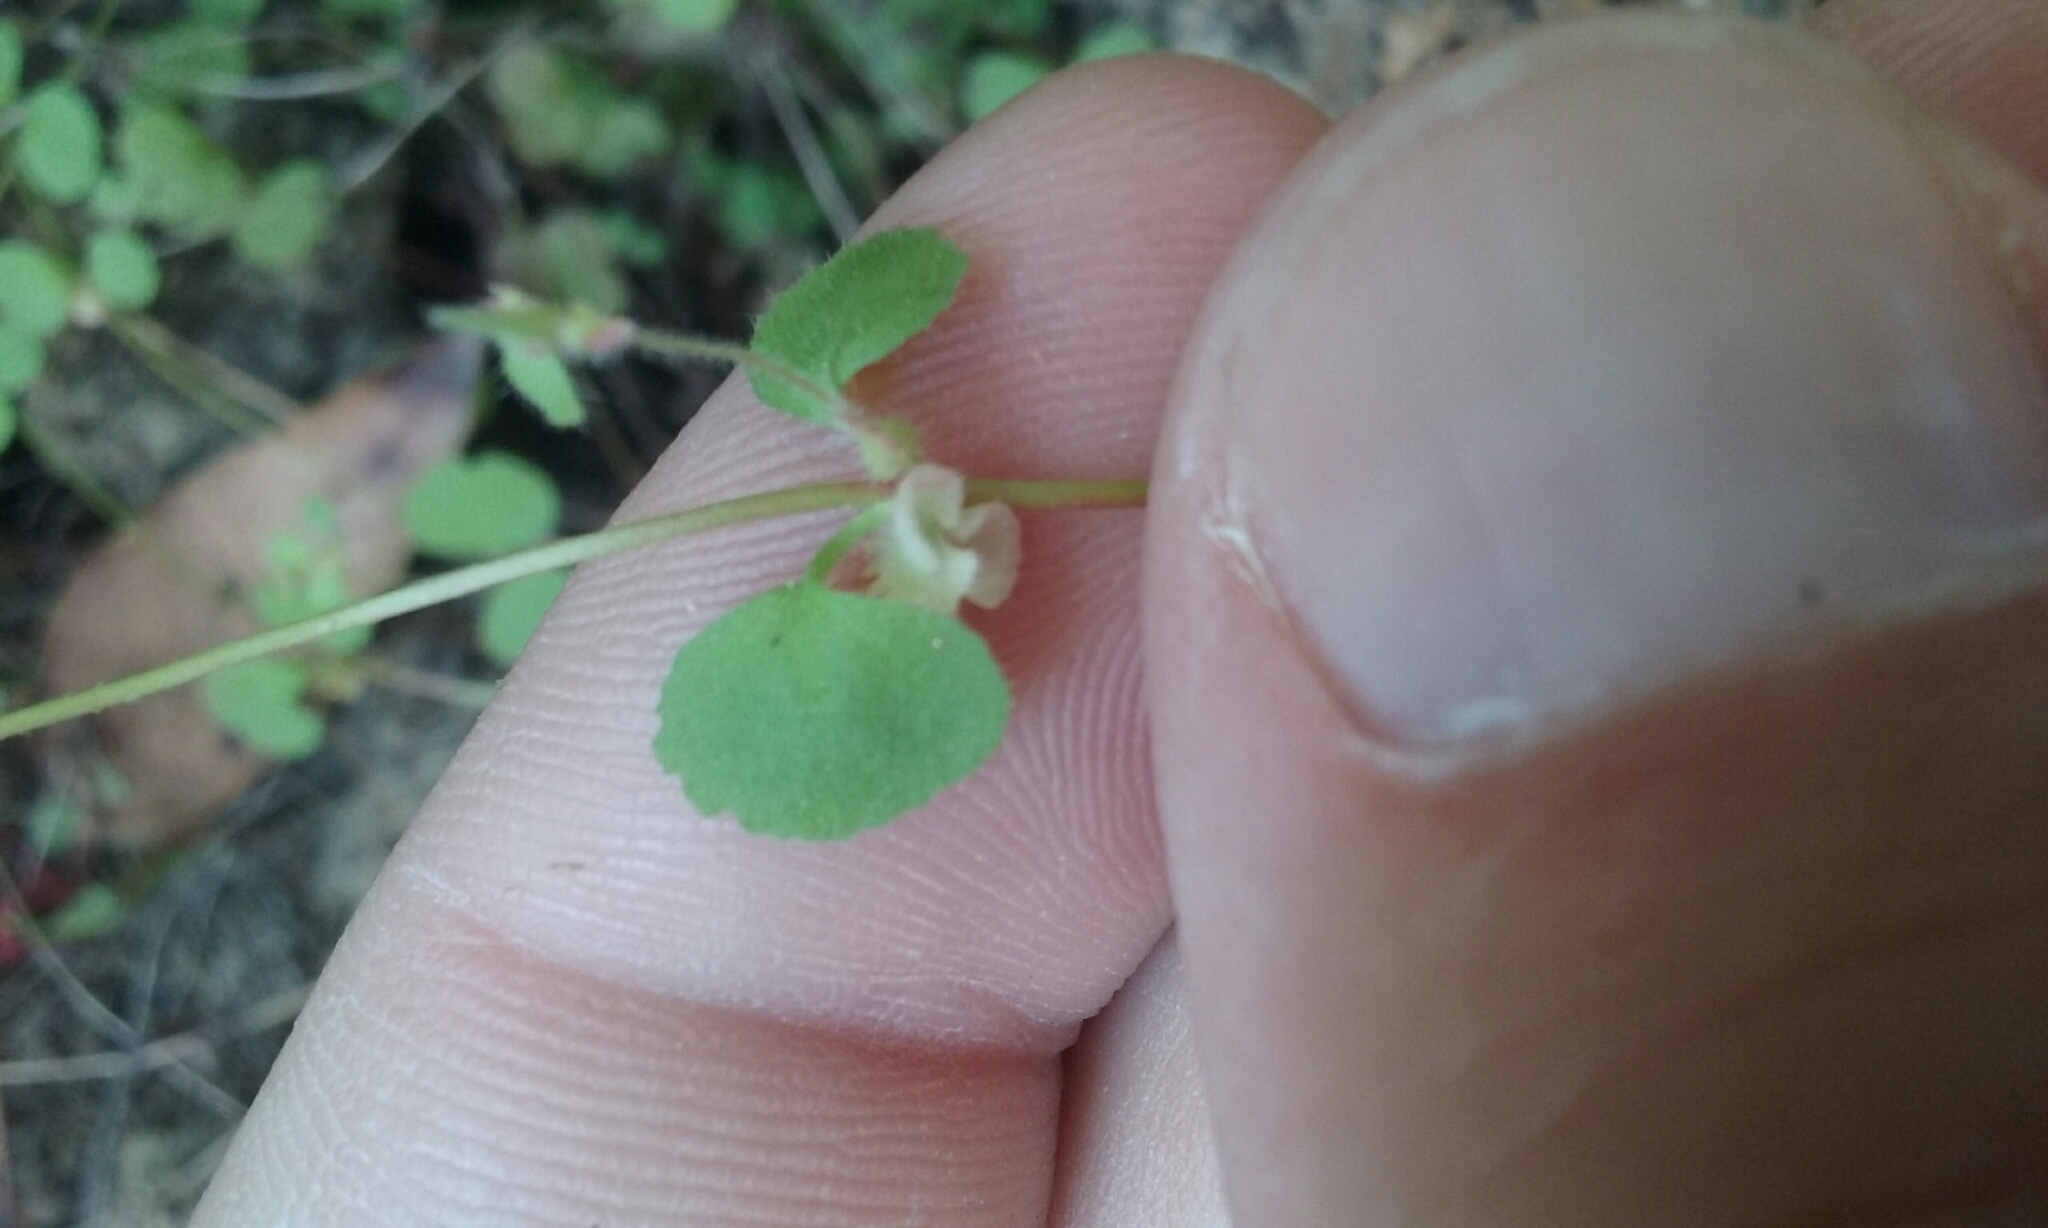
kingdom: Plantae
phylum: Tracheophyta
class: Magnoliopsida
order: Caryophyllales
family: Polygonaceae
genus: Pterostegia
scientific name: Pterostegia drymarioides
